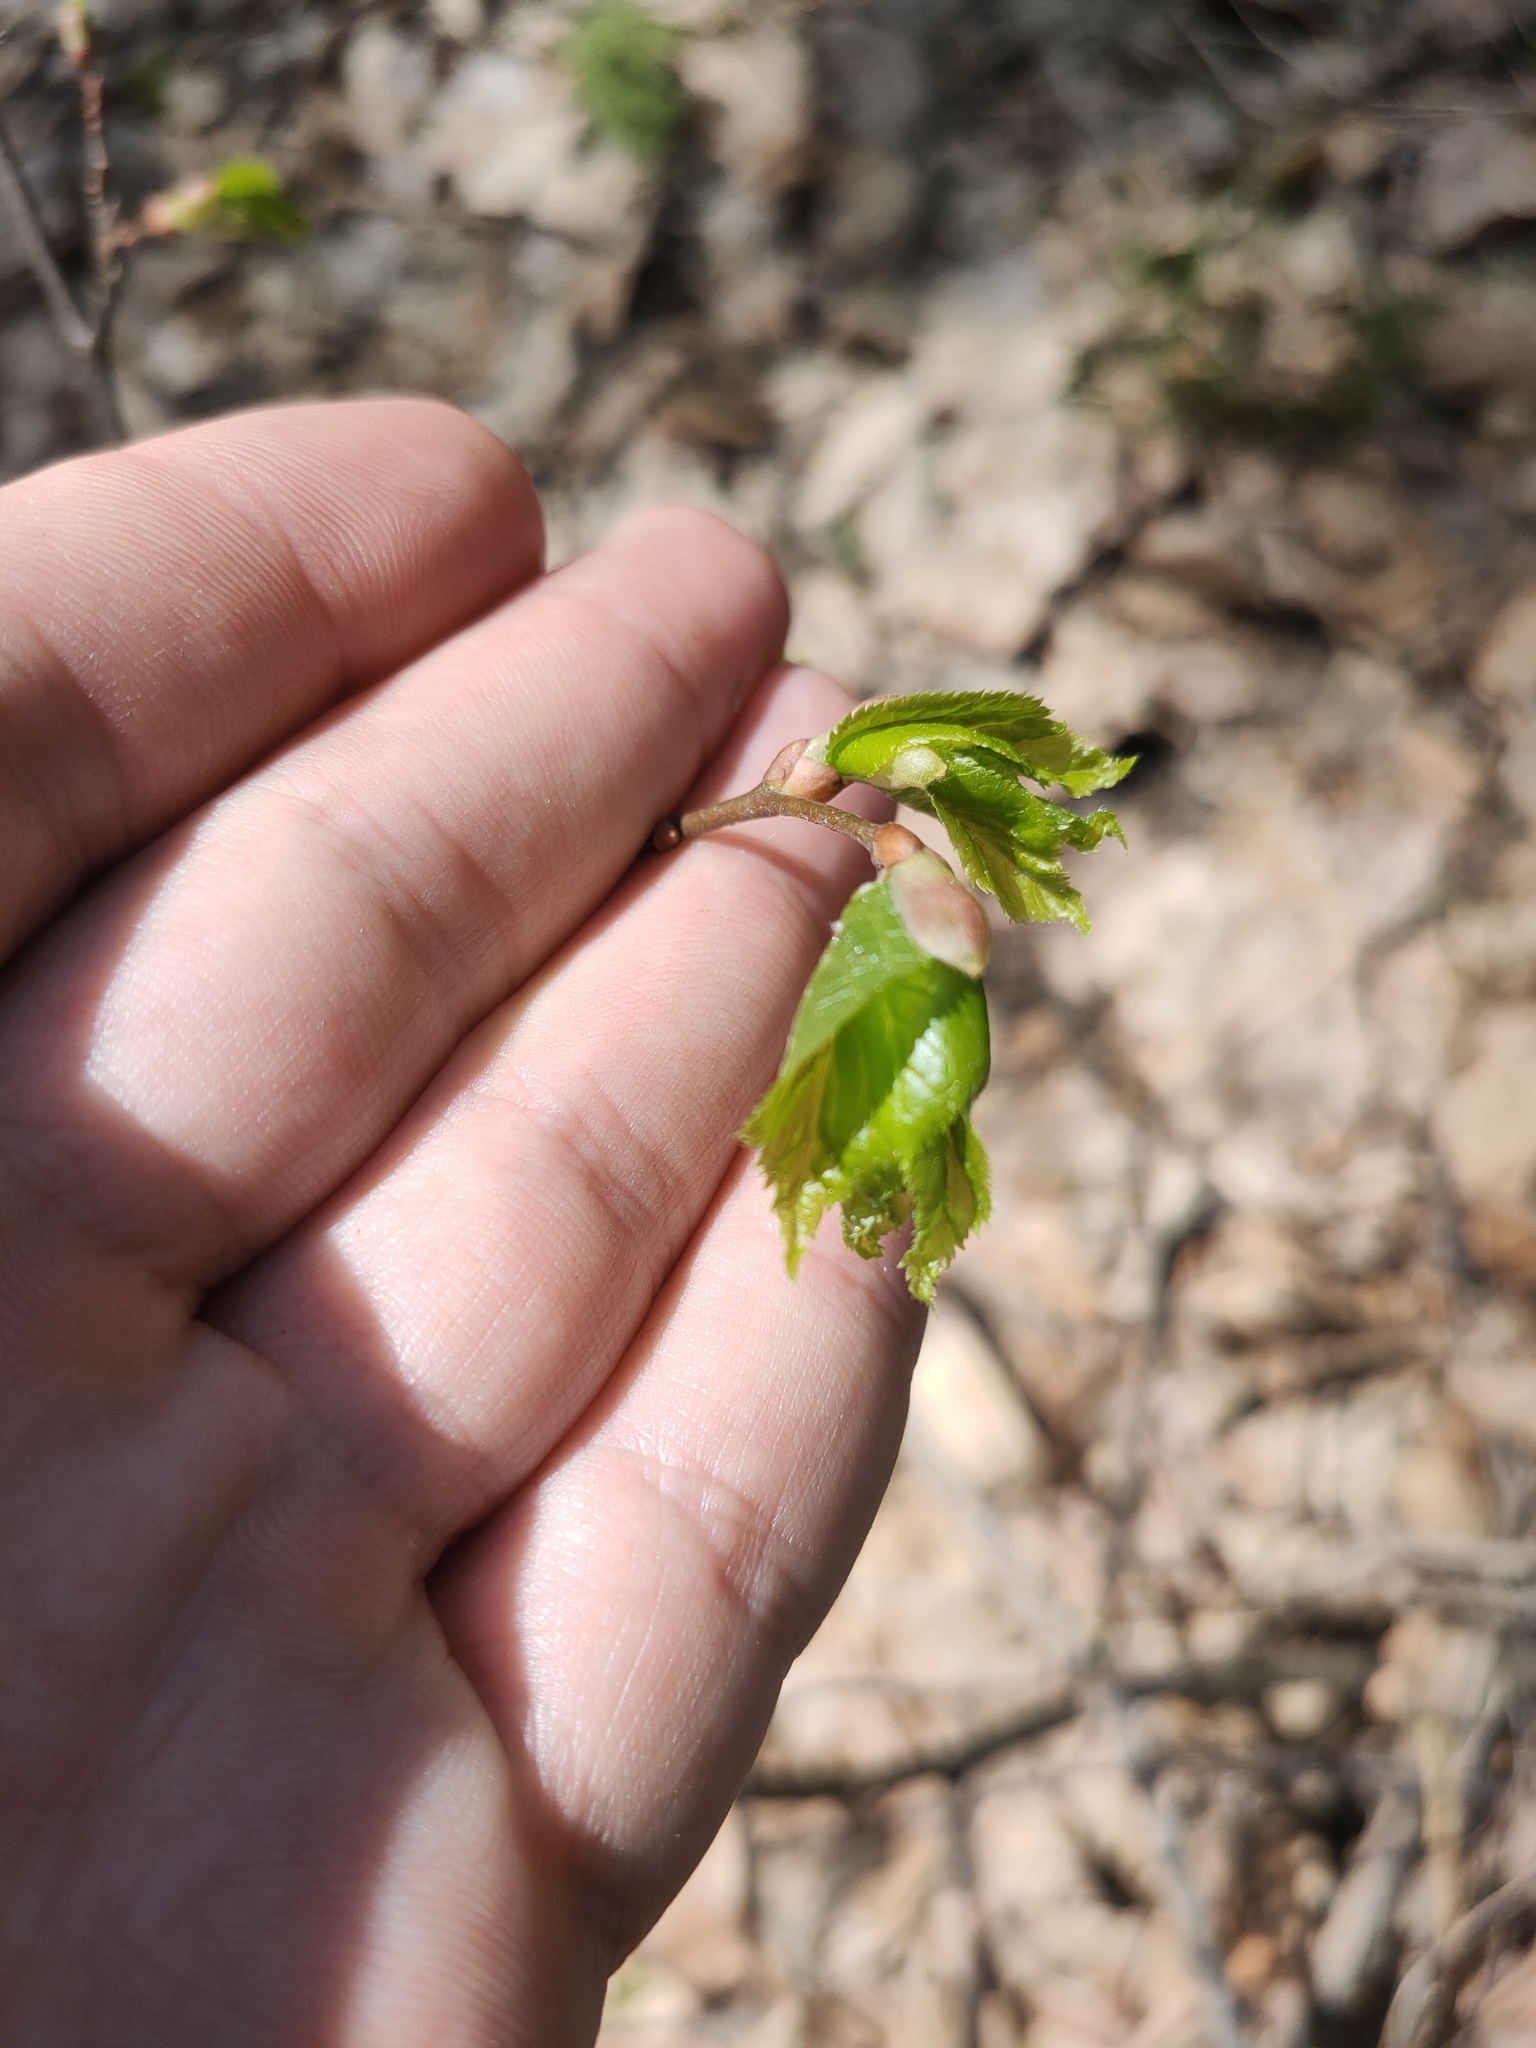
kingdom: Plantae
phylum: Tracheophyta
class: Magnoliopsida
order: Malvales
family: Malvaceae
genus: Tilia
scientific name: Tilia cordata
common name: Small-leaved lime
